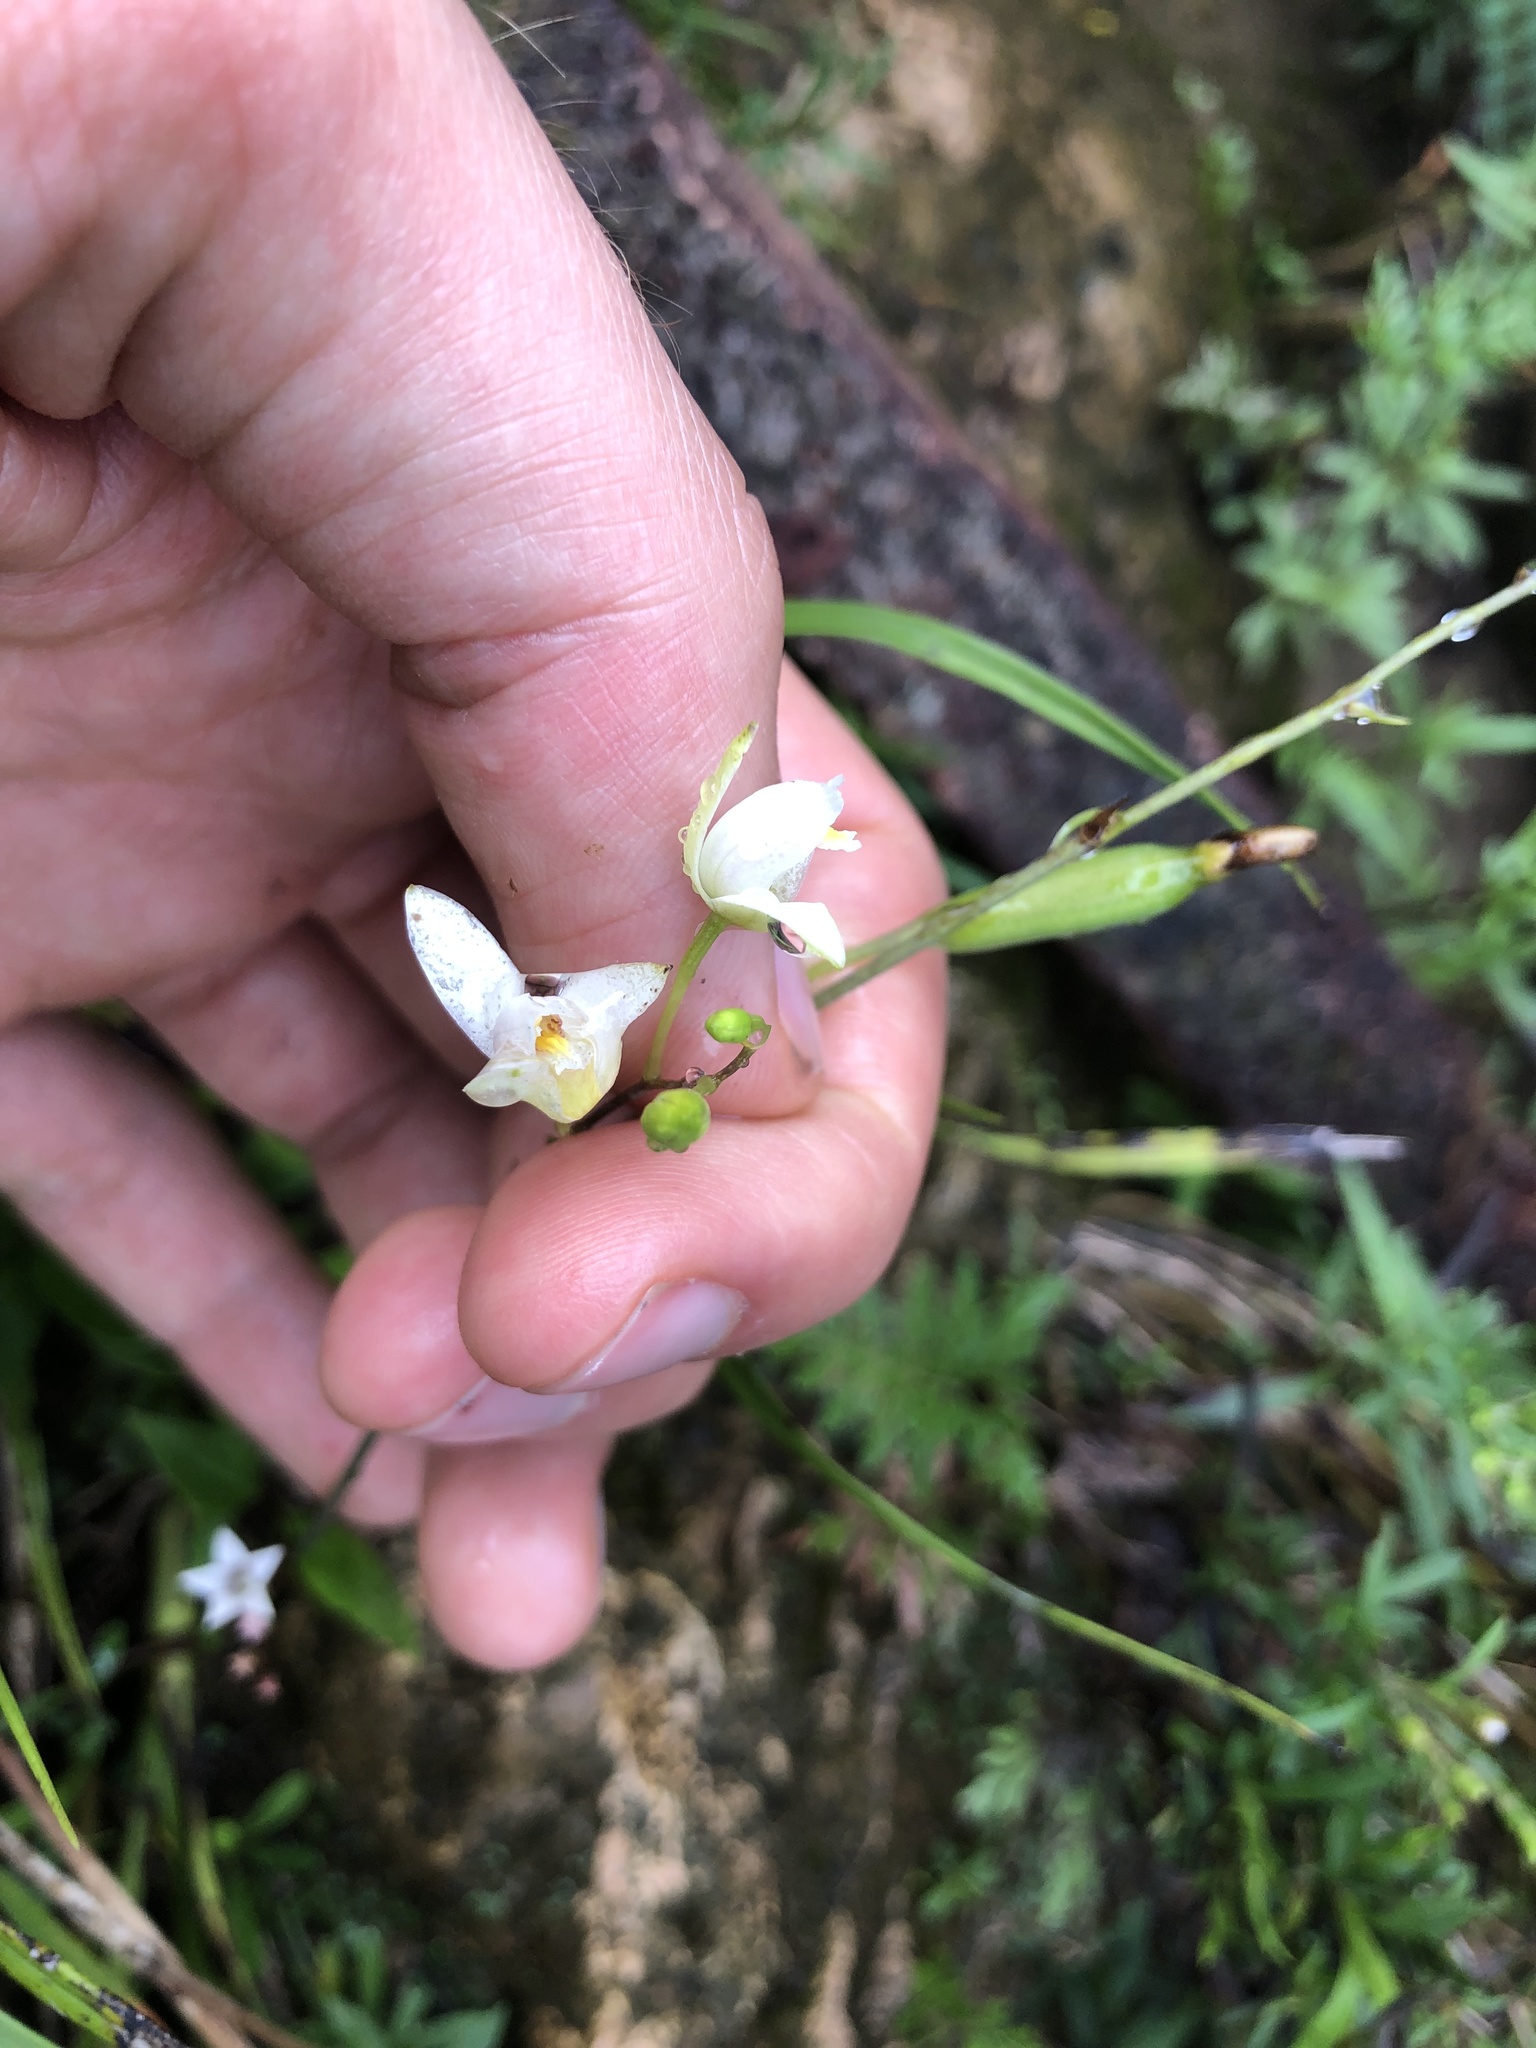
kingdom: Plantae
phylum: Tracheophyta
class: Liliopsida
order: Asparagales
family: Orchidaceae
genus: Bletia
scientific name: Bletia tenuifolia
